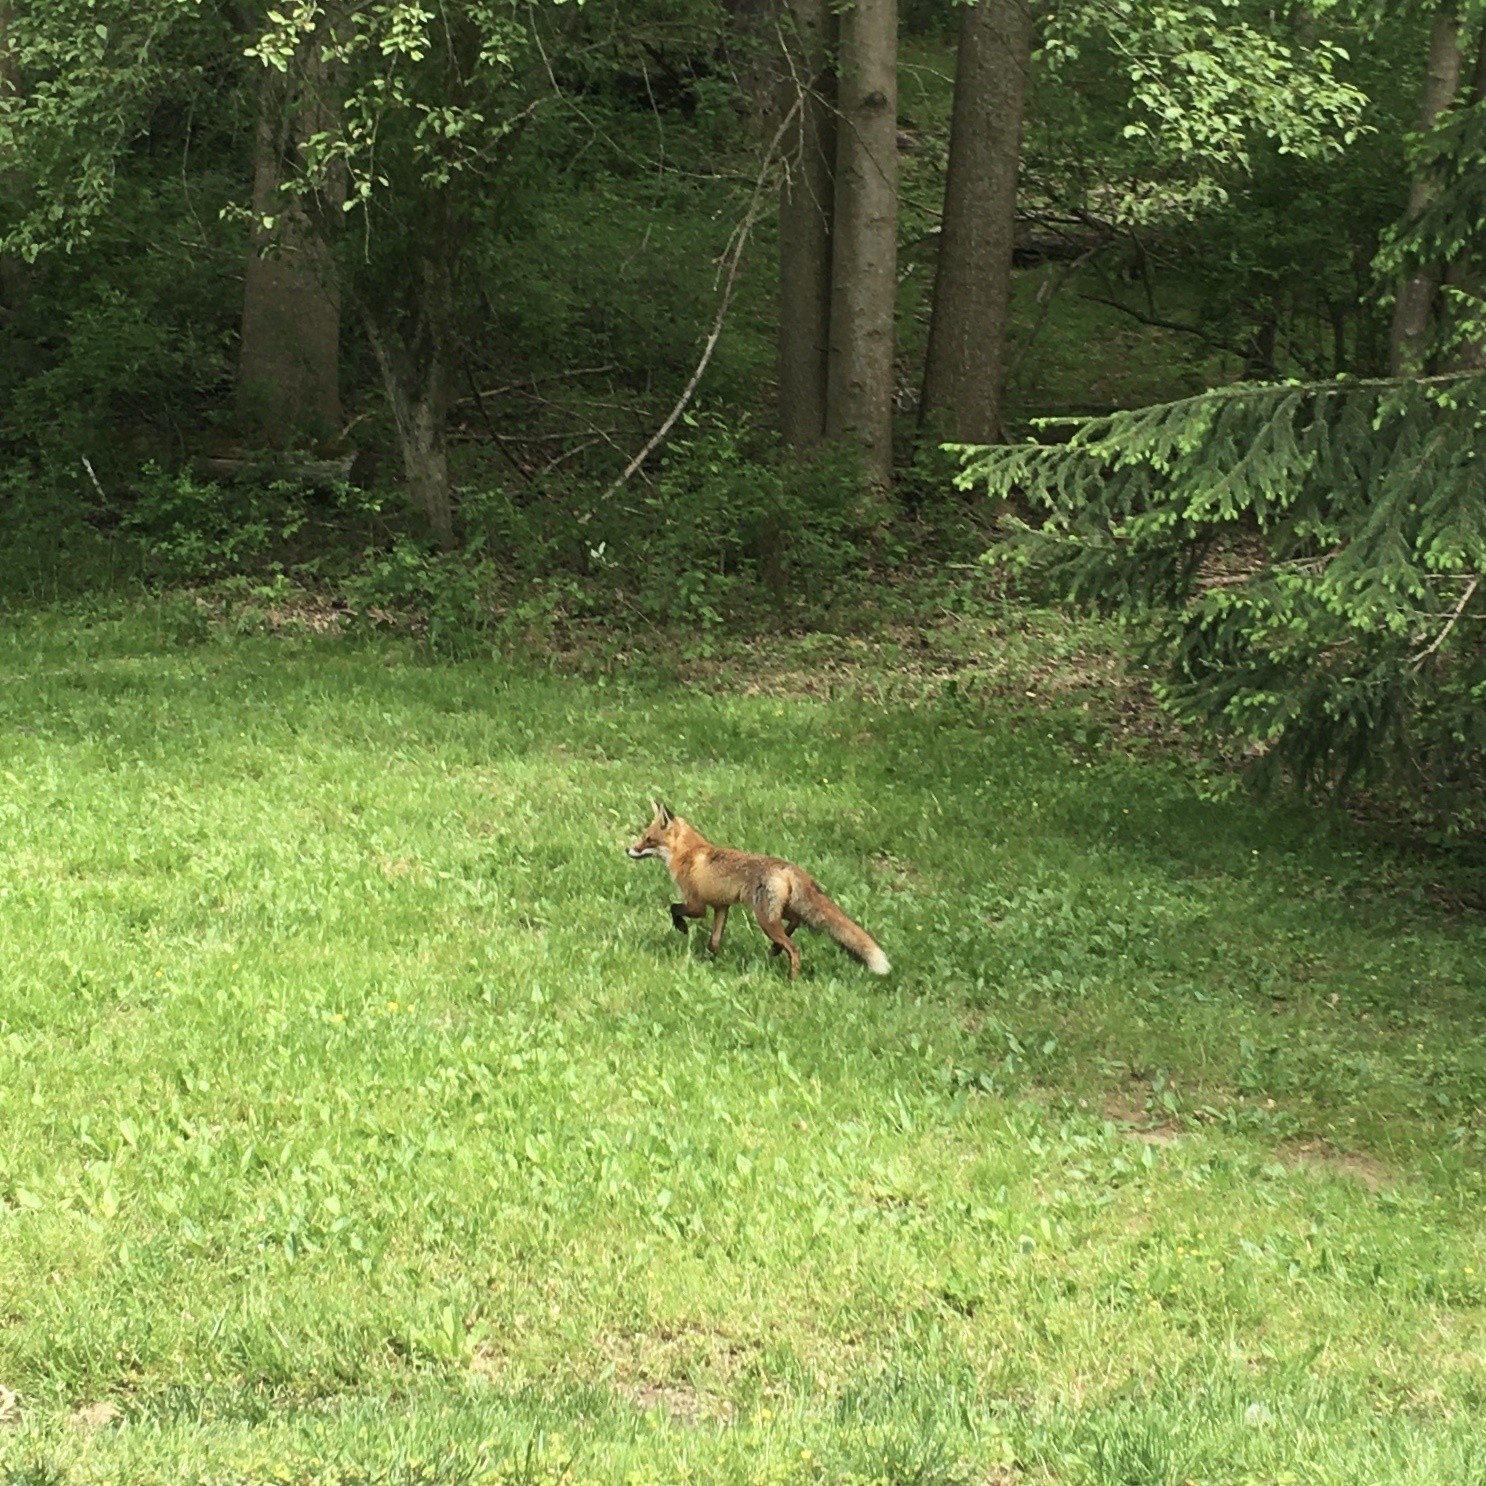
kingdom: Animalia
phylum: Chordata
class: Mammalia
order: Carnivora
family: Canidae
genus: Vulpes
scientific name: Vulpes vulpes
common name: Red fox
